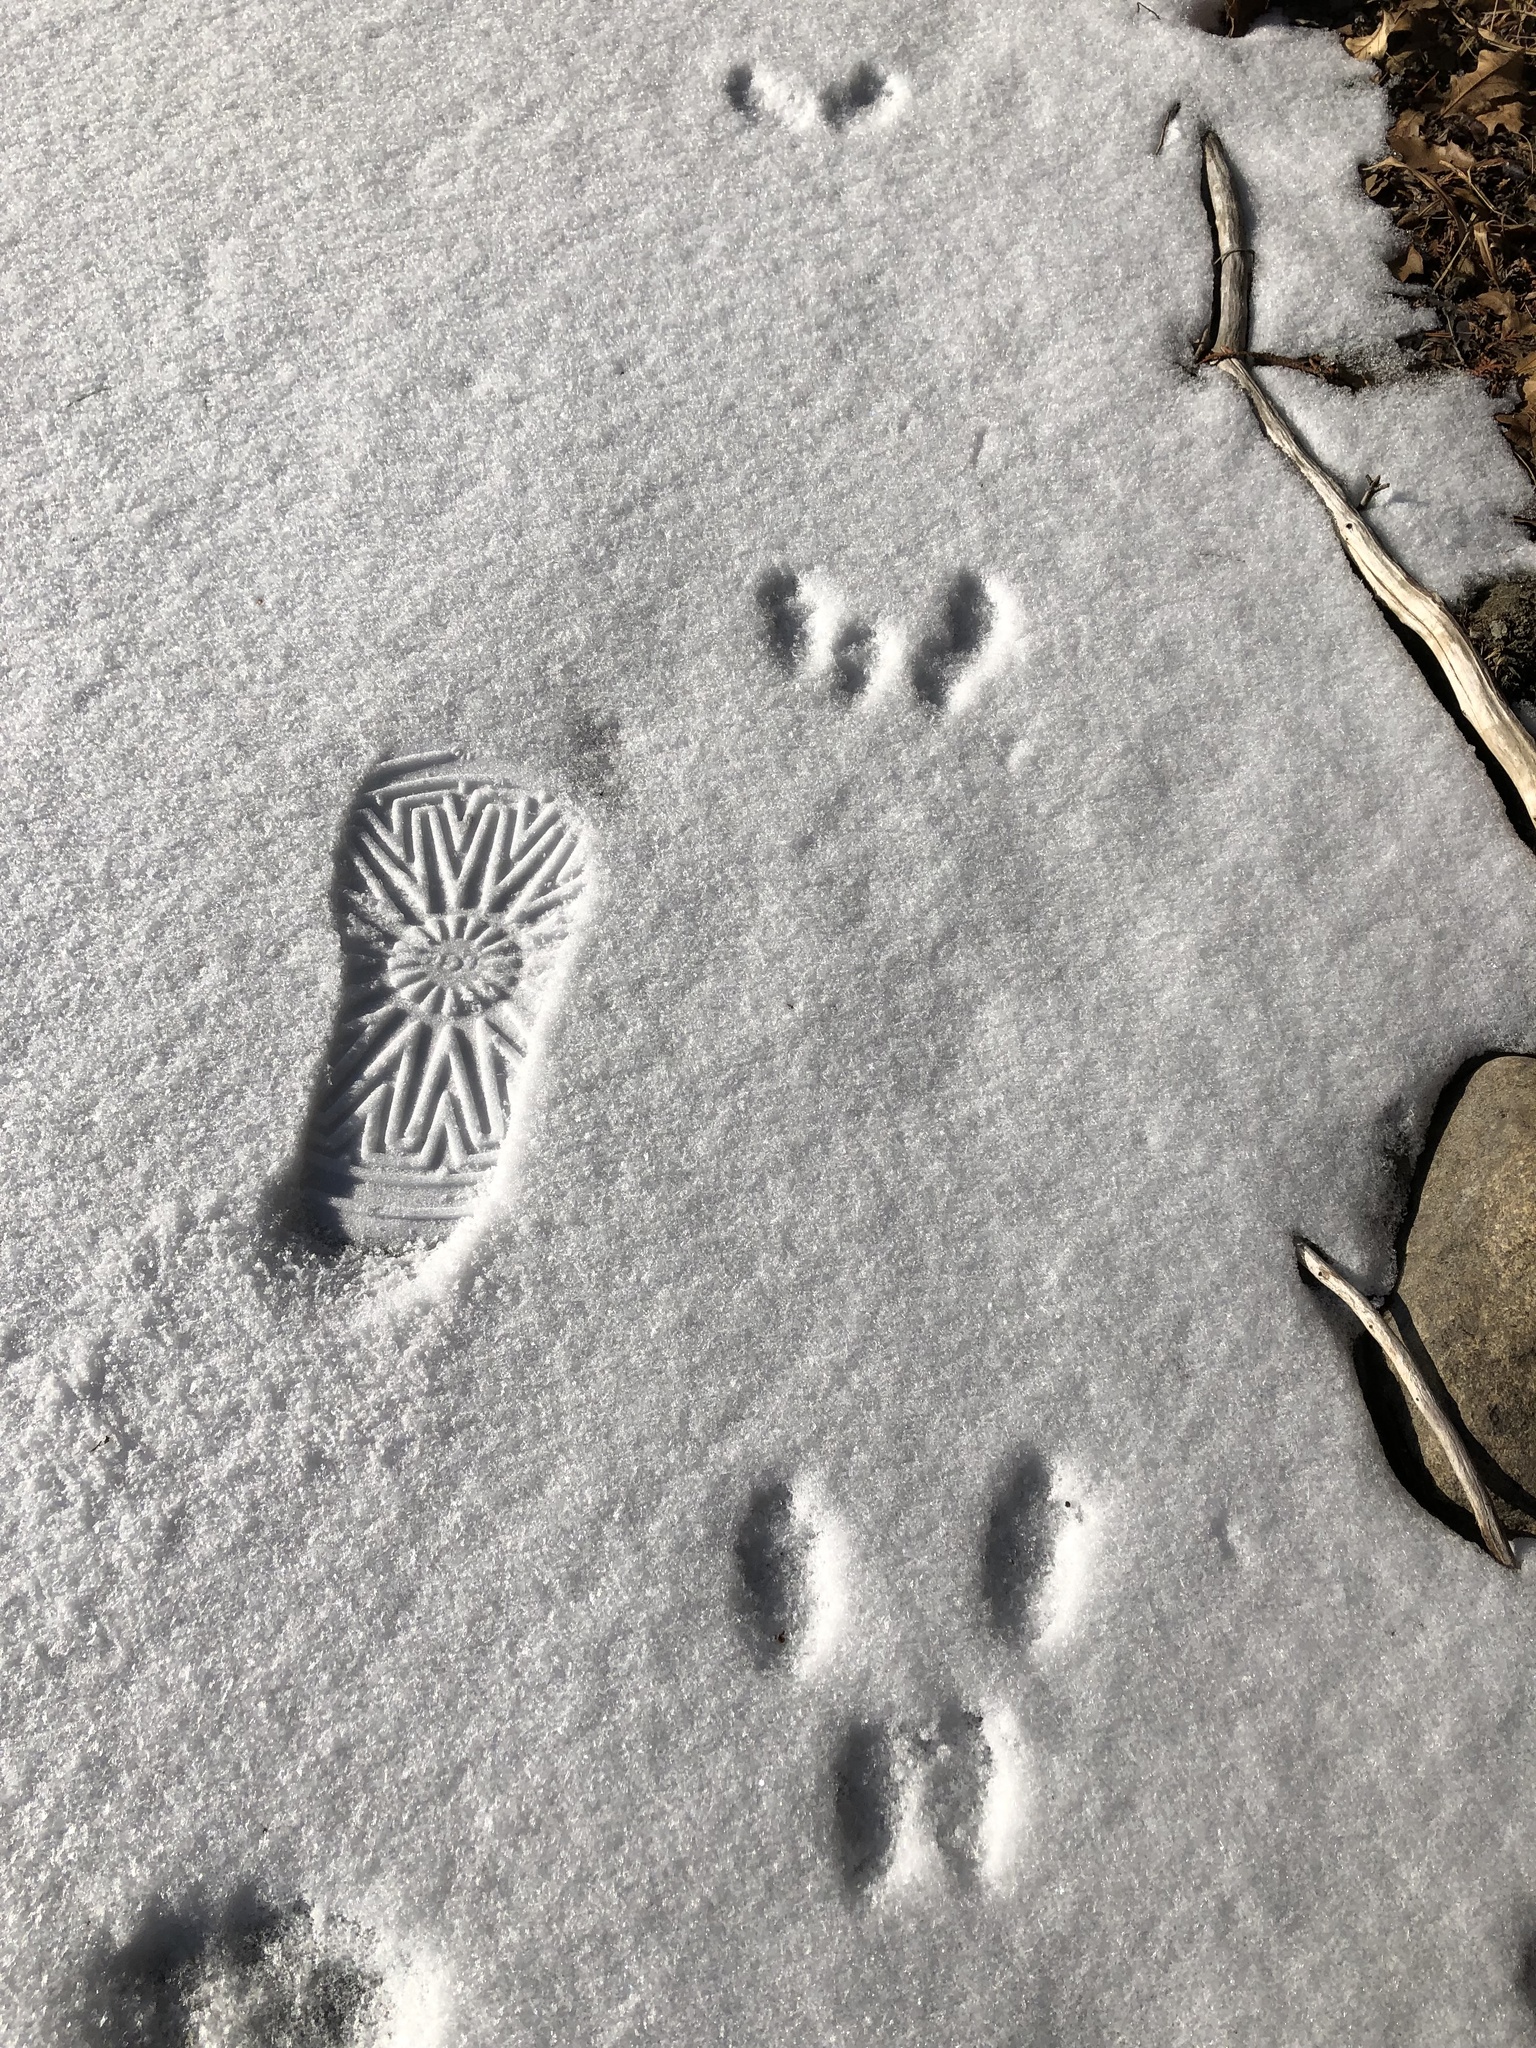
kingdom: Animalia
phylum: Chordata
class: Mammalia
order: Rodentia
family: Sciuridae
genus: Sciurus
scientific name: Sciurus carolinensis
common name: Eastern gray squirrel
